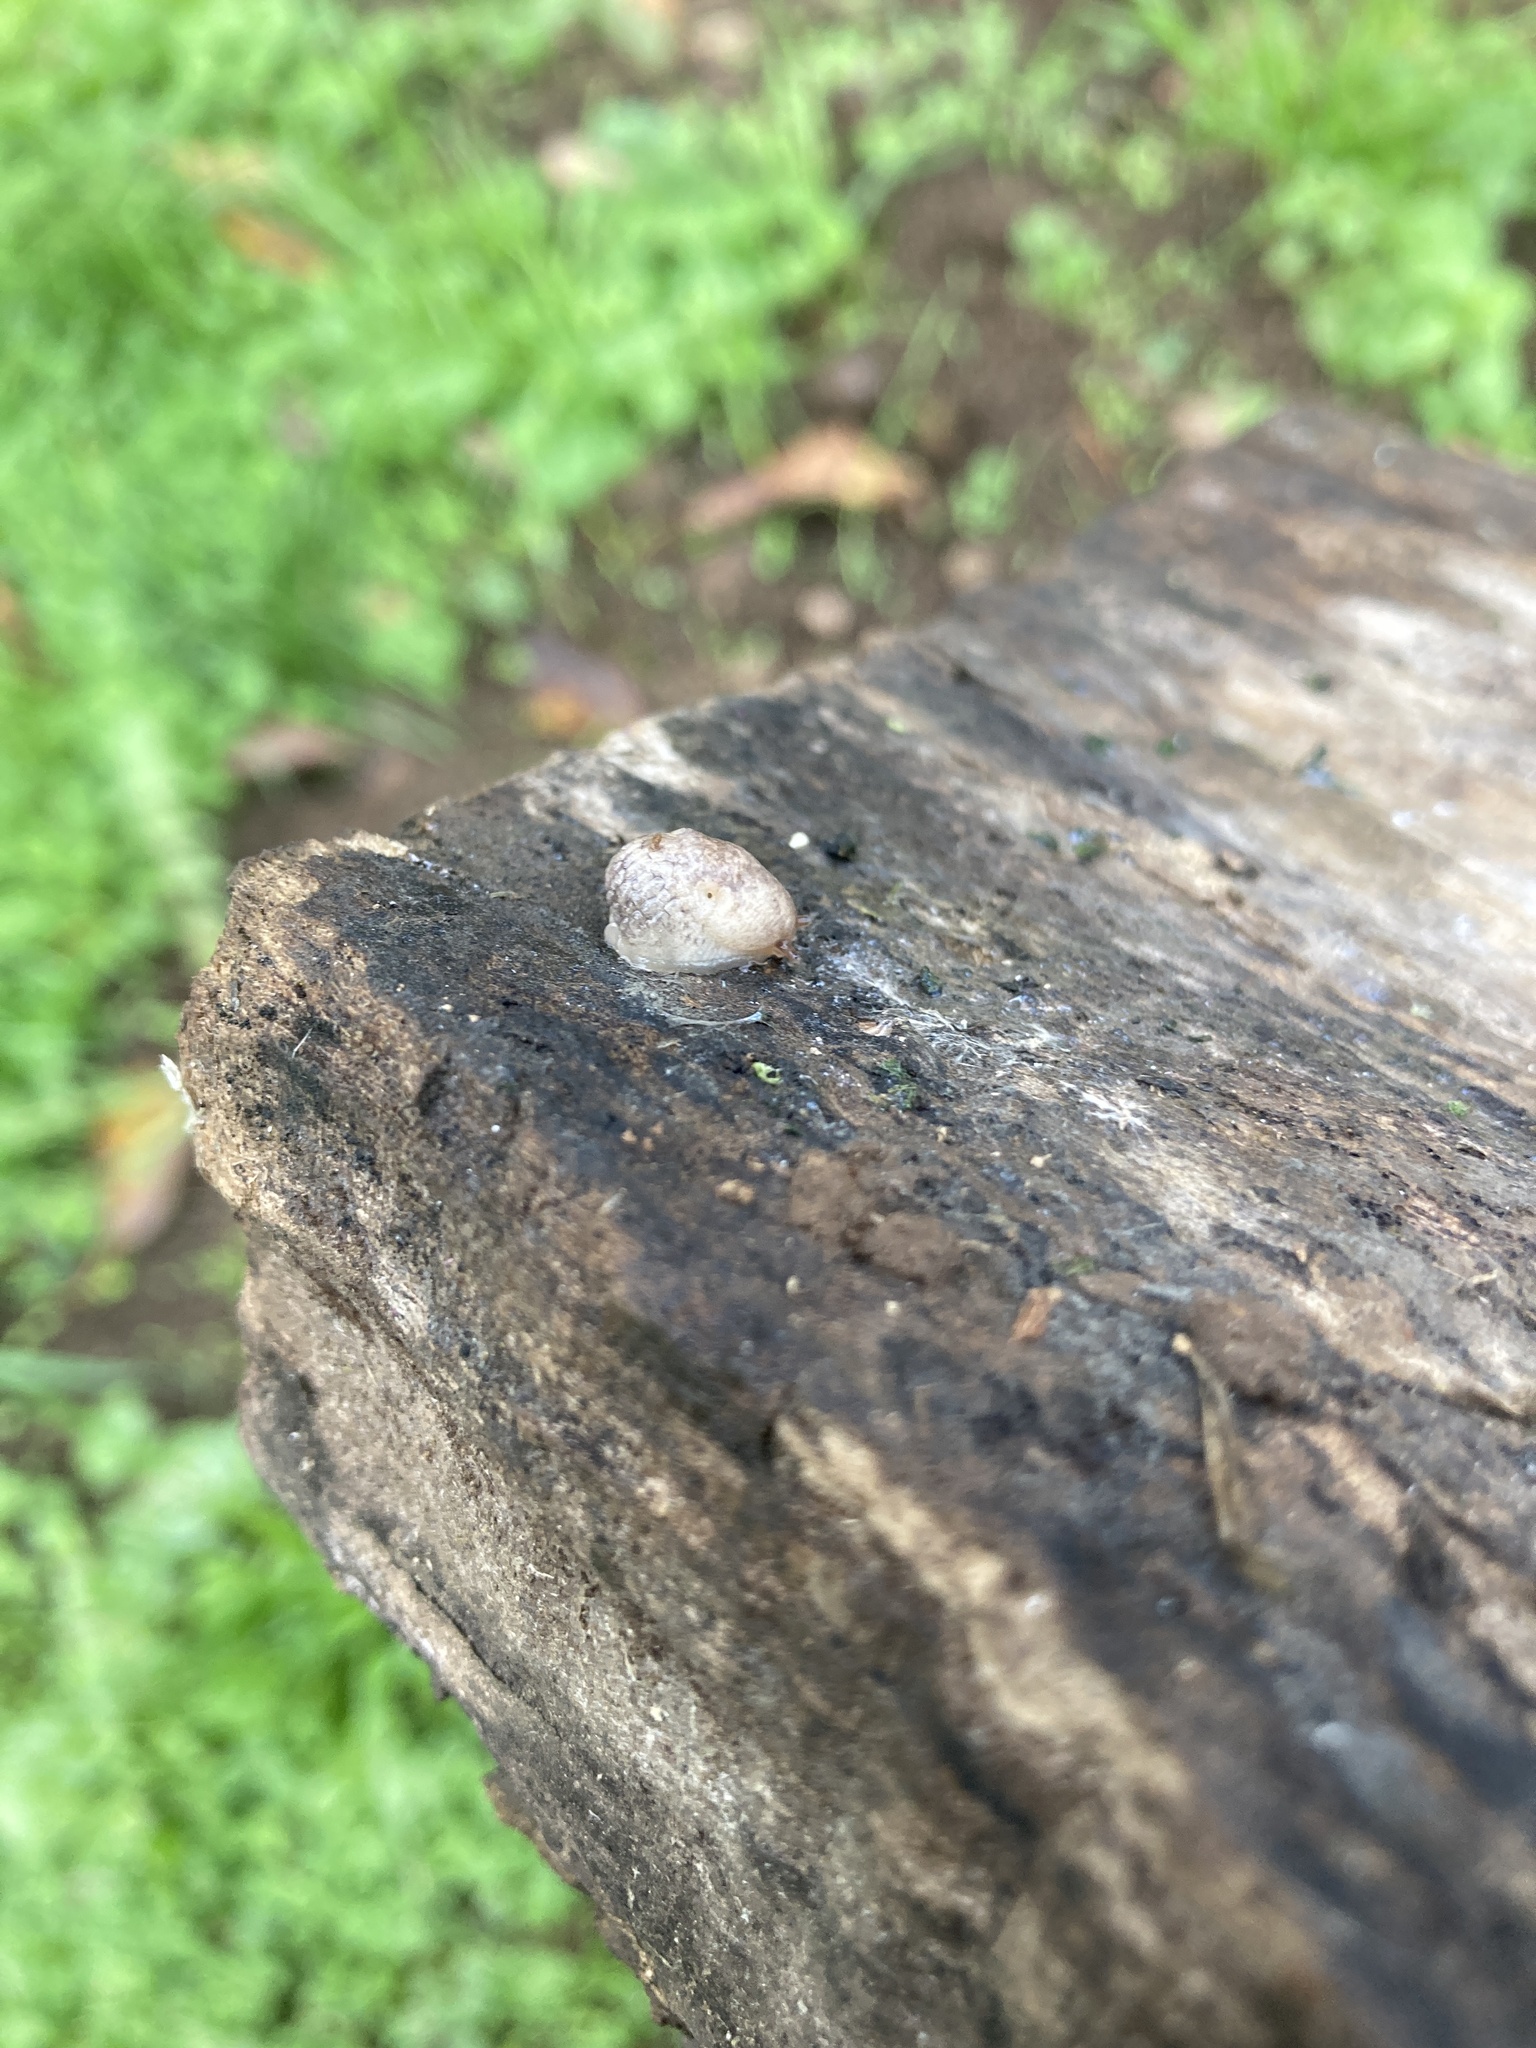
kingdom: Animalia
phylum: Mollusca
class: Gastropoda
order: Stylommatophora
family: Agriolimacidae
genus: Deroceras
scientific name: Deroceras reticulatum
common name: Gray field slug
